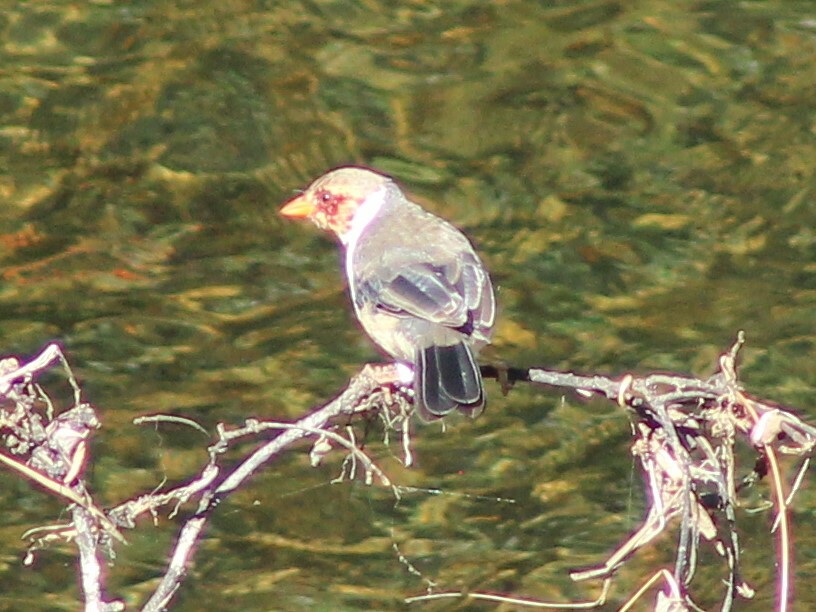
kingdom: Animalia
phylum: Chordata
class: Aves
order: Passeriformes
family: Thraupidae
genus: Paroaria
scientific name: Paroaria capitata
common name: Yellow-billed cardinal
